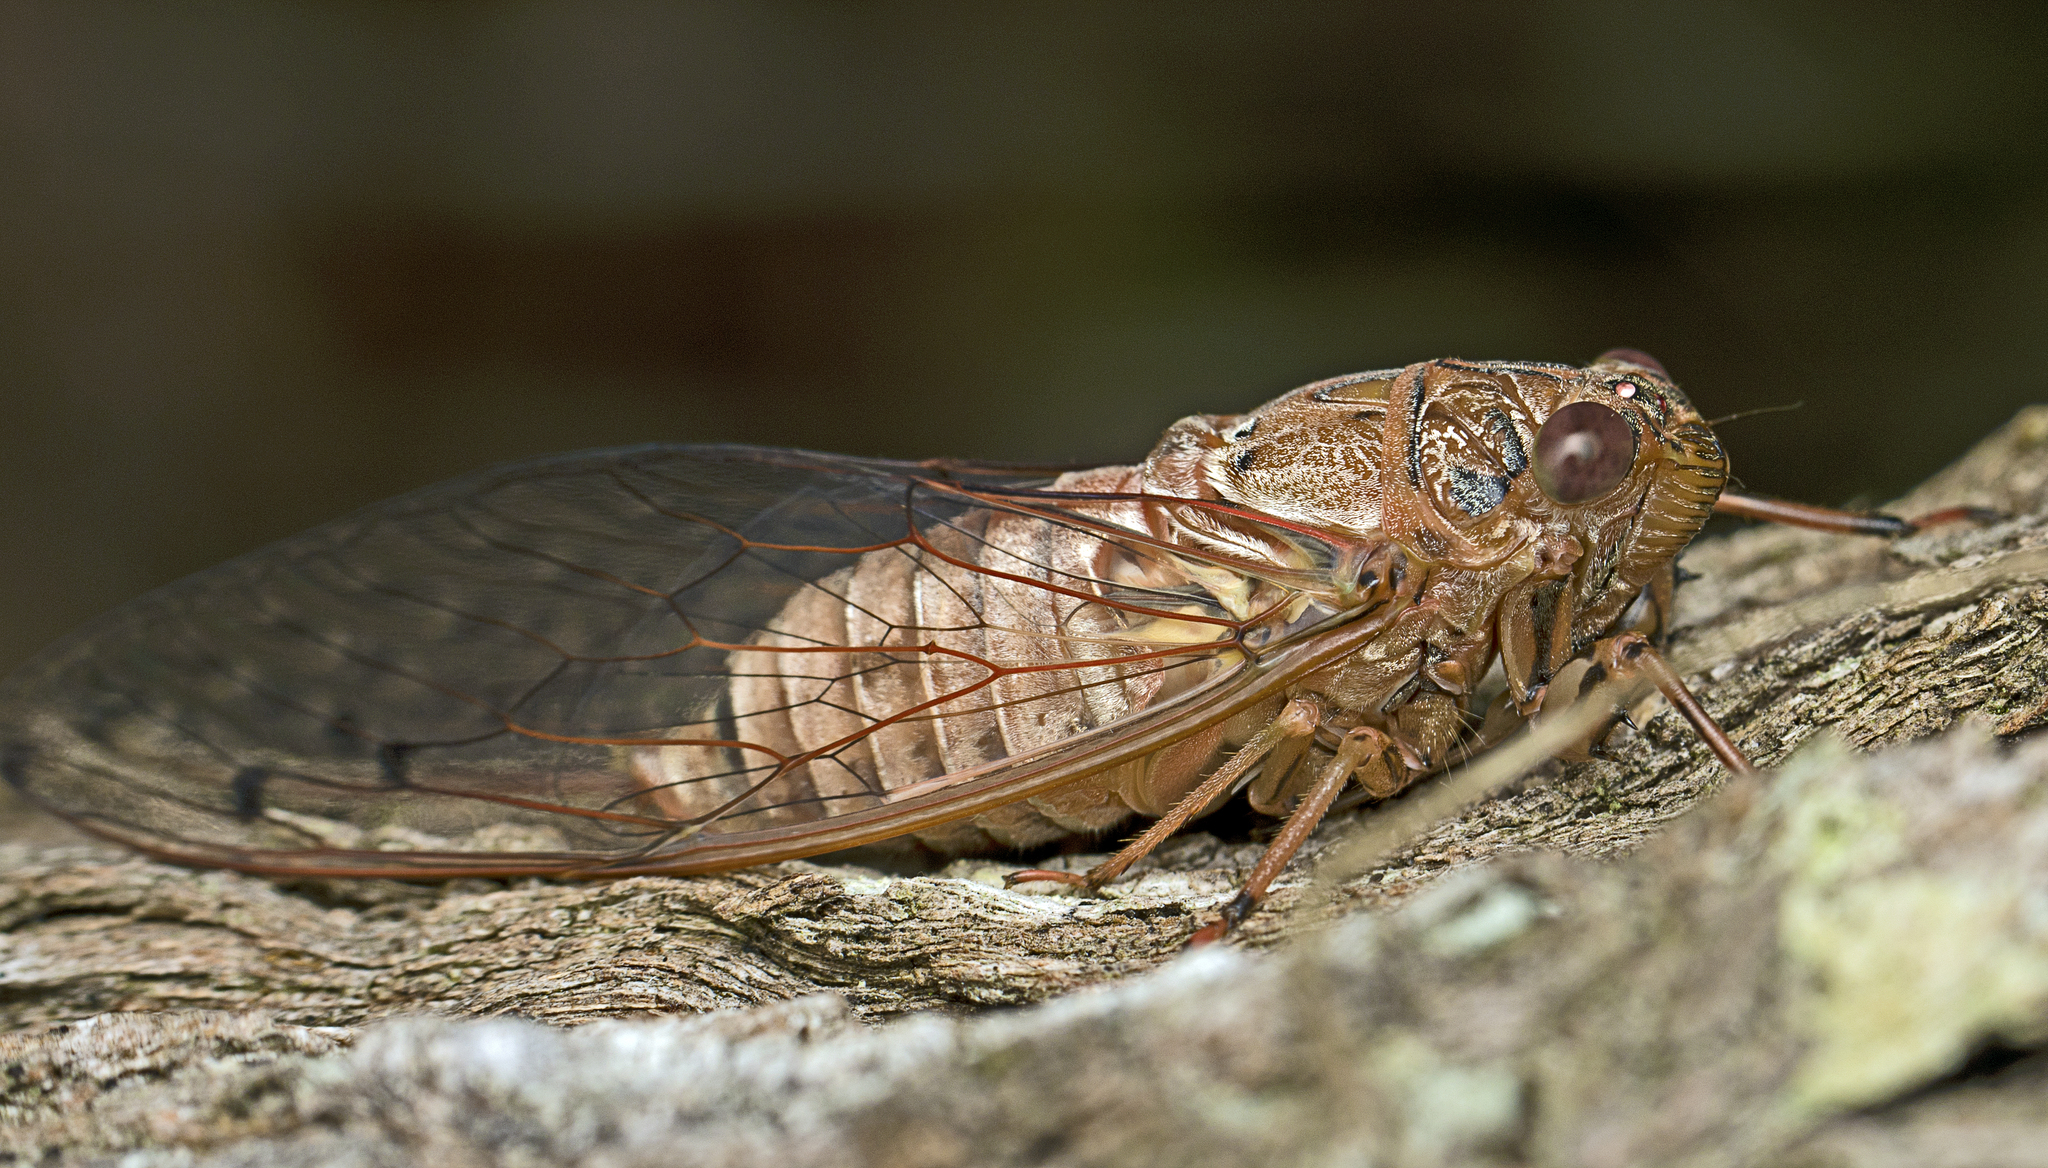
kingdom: Animalia
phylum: Arthropoda
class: Insecta
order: Hemiptera
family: Cicadidae
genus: Tamasa
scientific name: Tamasa tristigma
